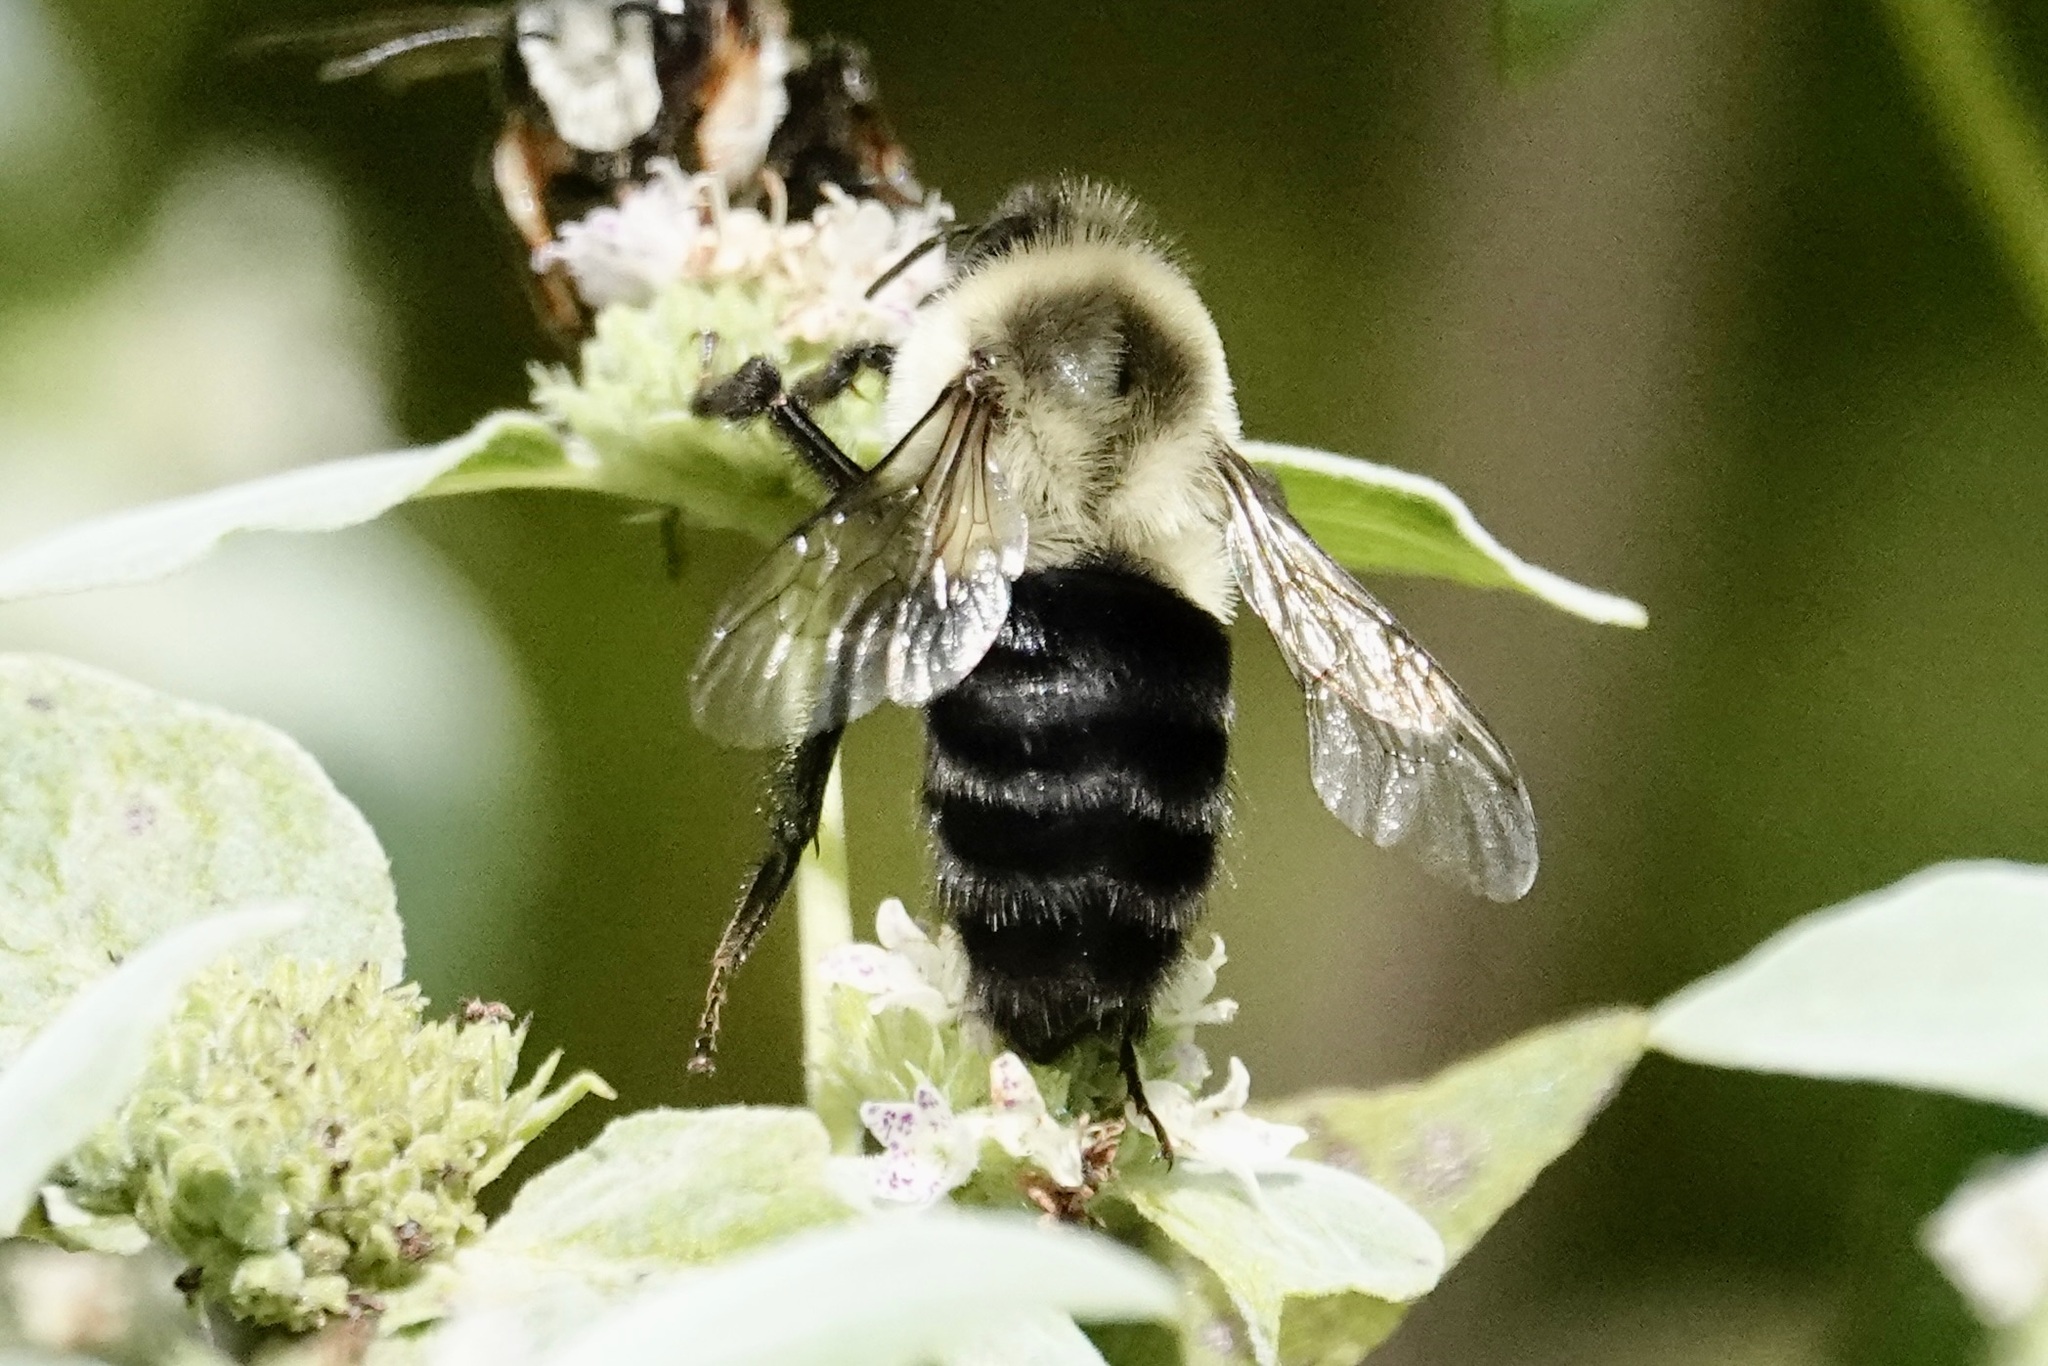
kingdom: Animalia
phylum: Arthropoda
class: Insecta
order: Hymenoptera
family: Apidae
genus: Bombus
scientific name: Bombus impatiens
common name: Common eastern bumble bee
